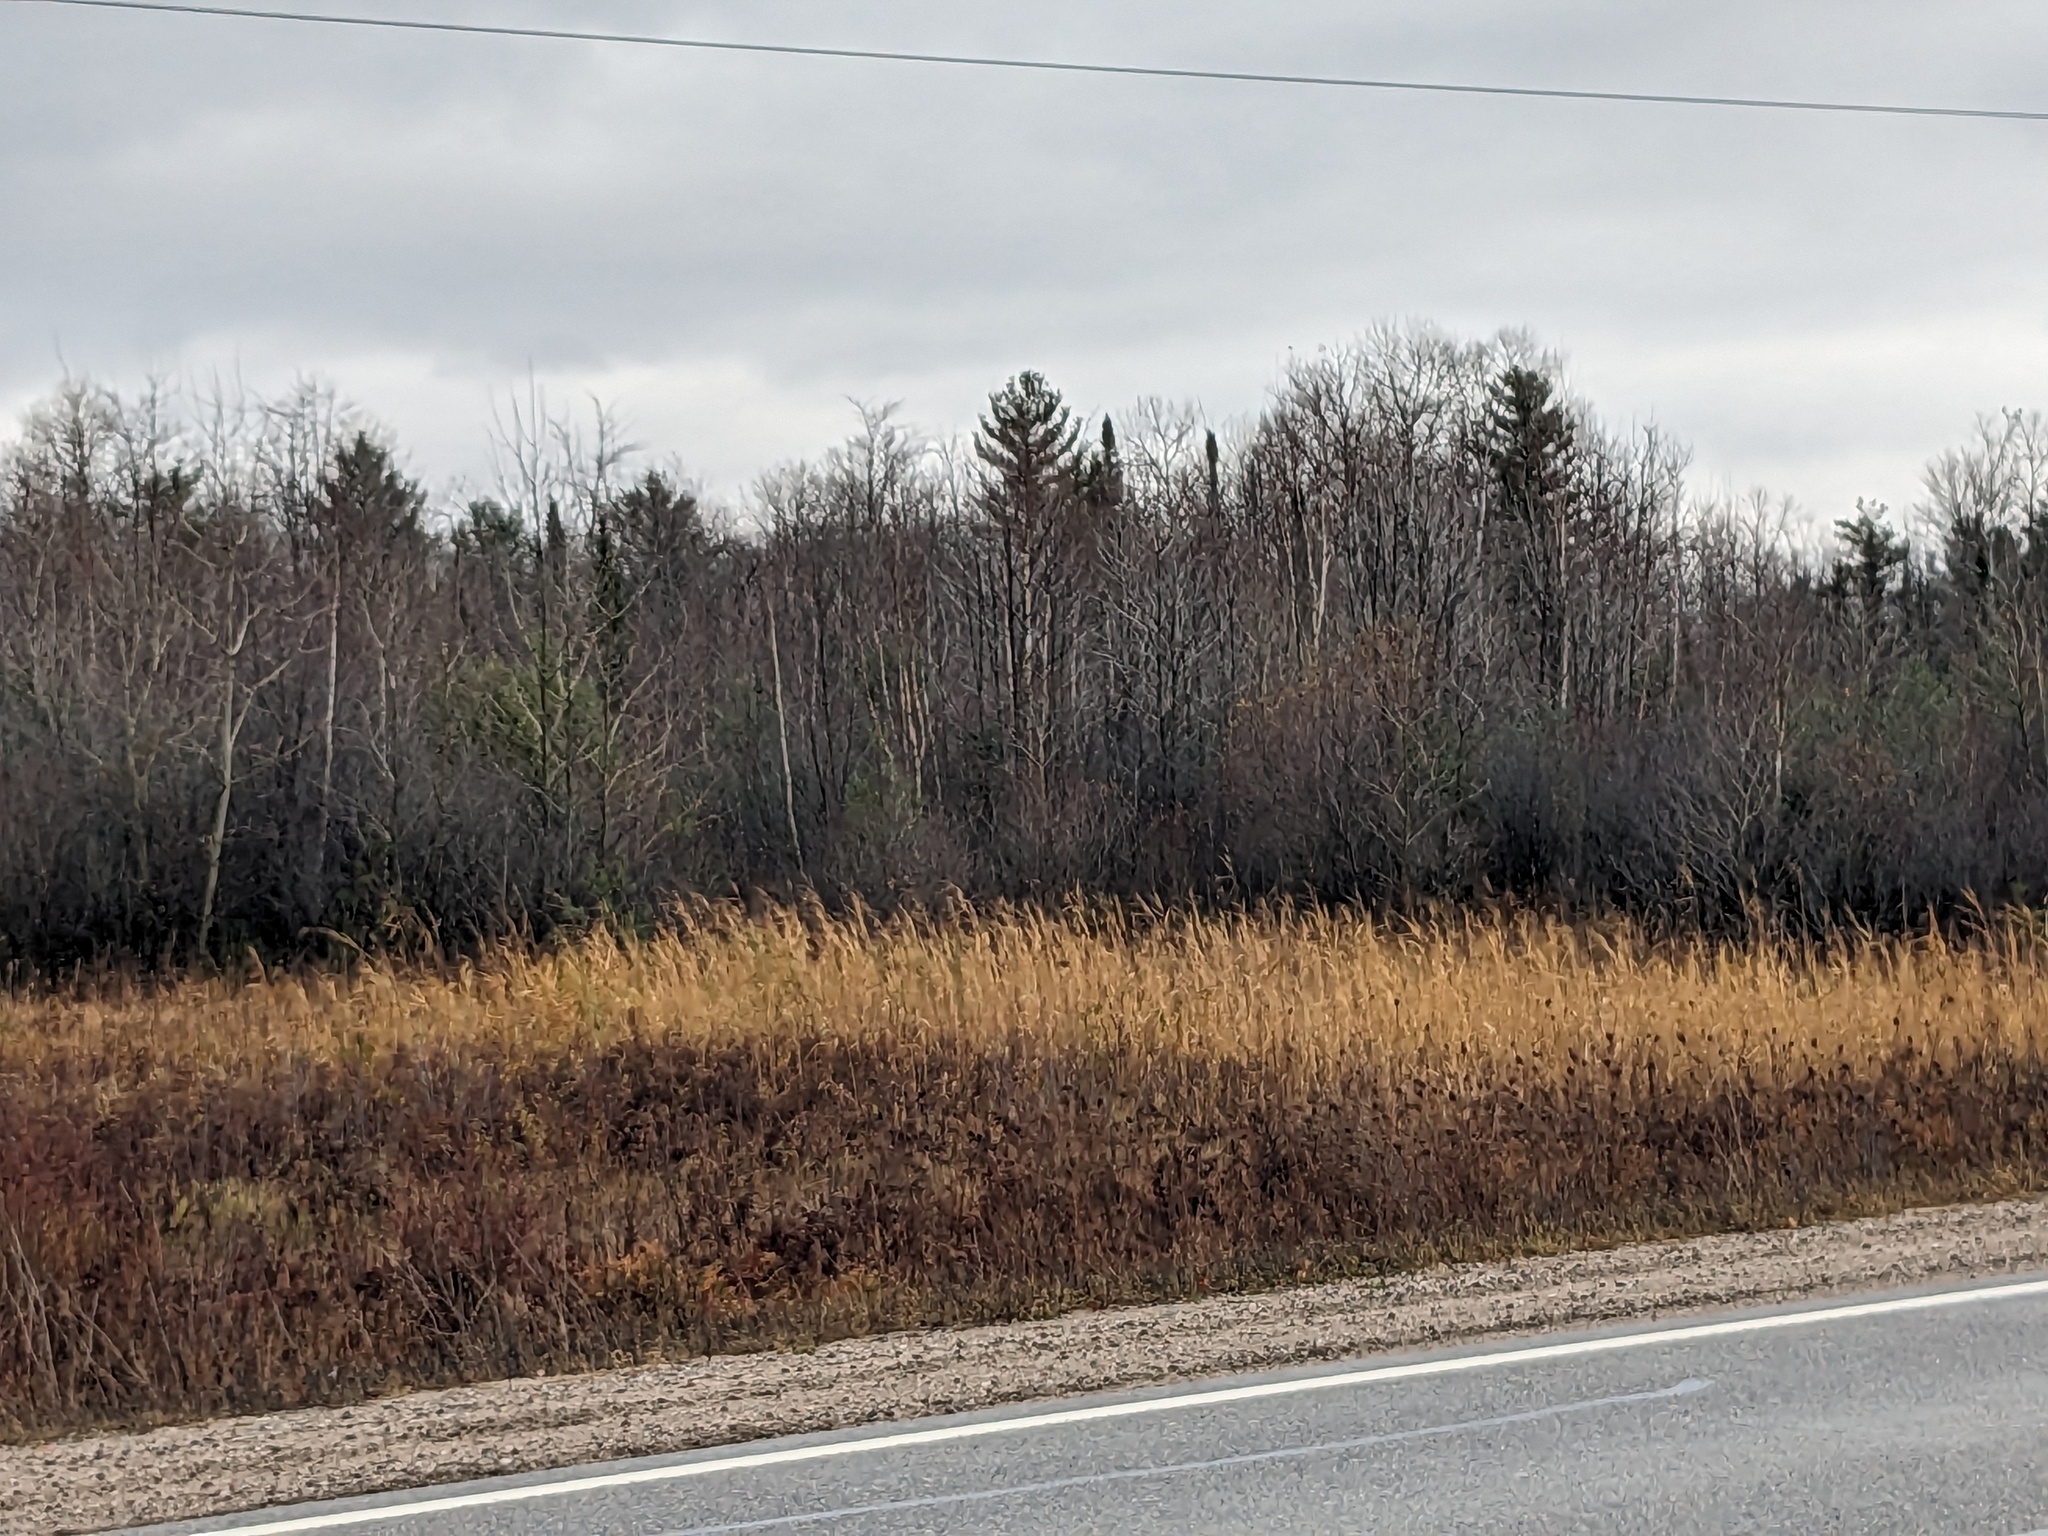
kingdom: Plantae
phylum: Tracheophyta
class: Liliopsida
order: Poales
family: Poaceae
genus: Phragmites
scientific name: Phragmites australis
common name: Common reed
